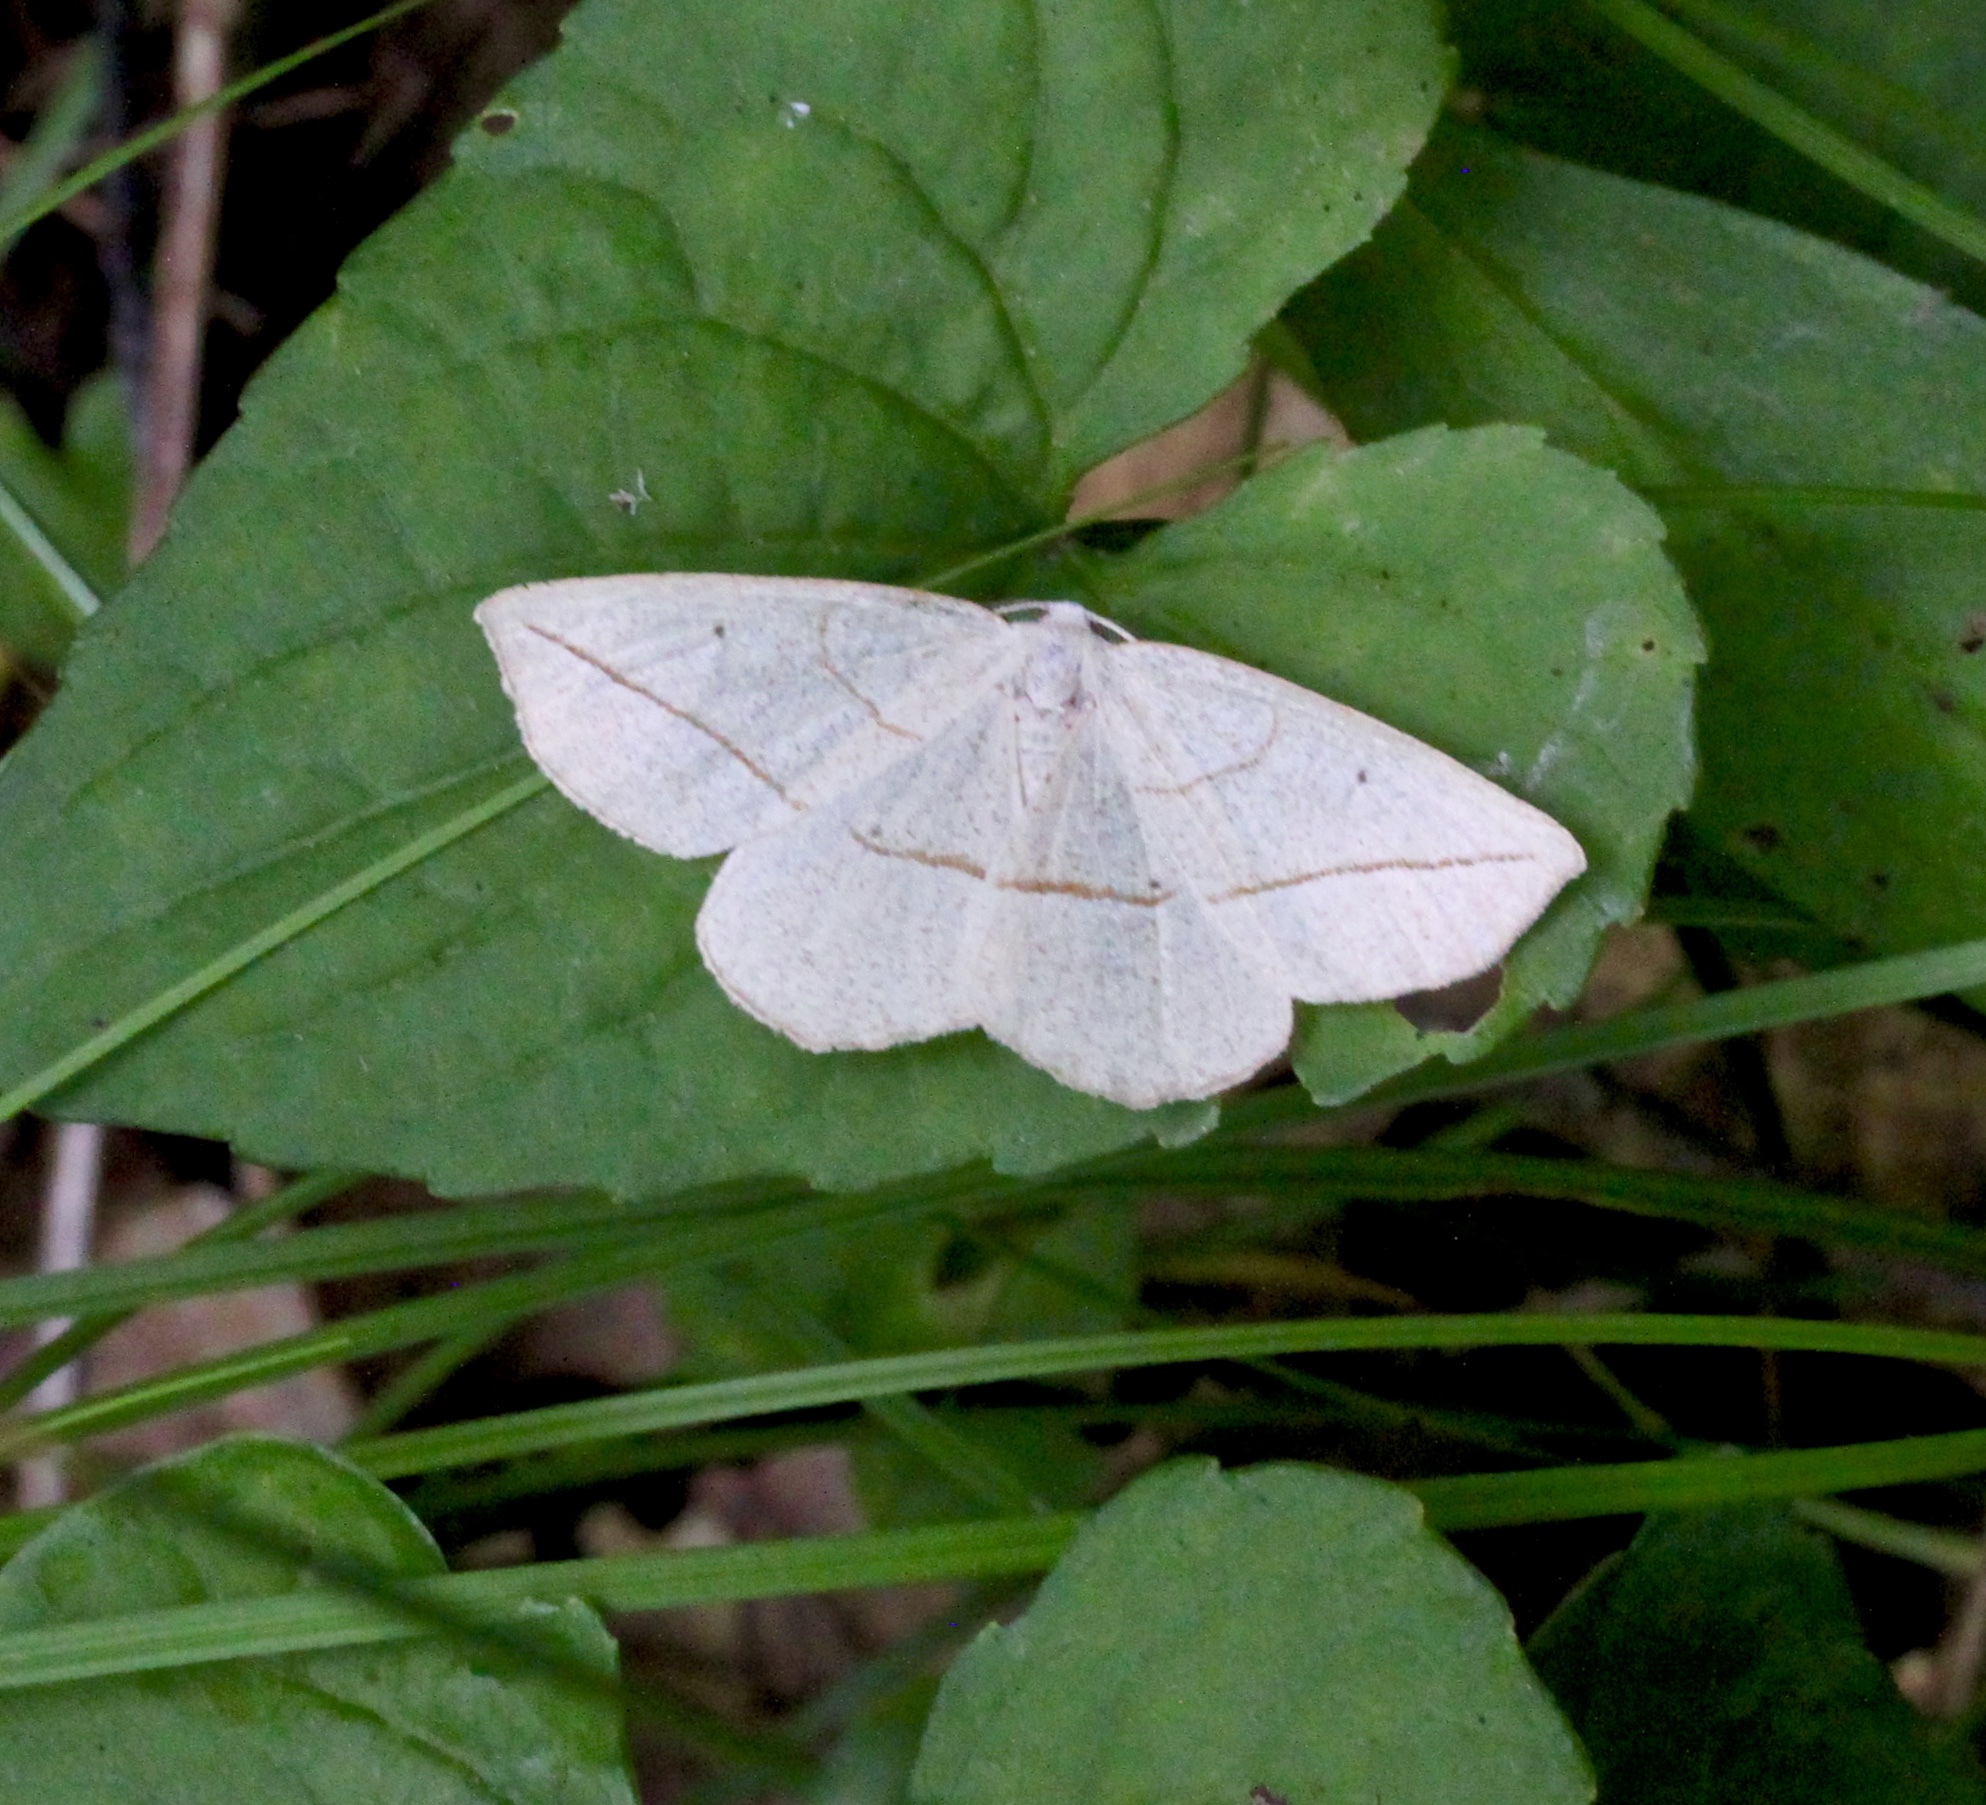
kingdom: Animalia
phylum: Arthropoda
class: Insecta
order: Lepidoptera
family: Geometridae
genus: Eusarca
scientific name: Eusarca confusaria
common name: Confused eusarca
